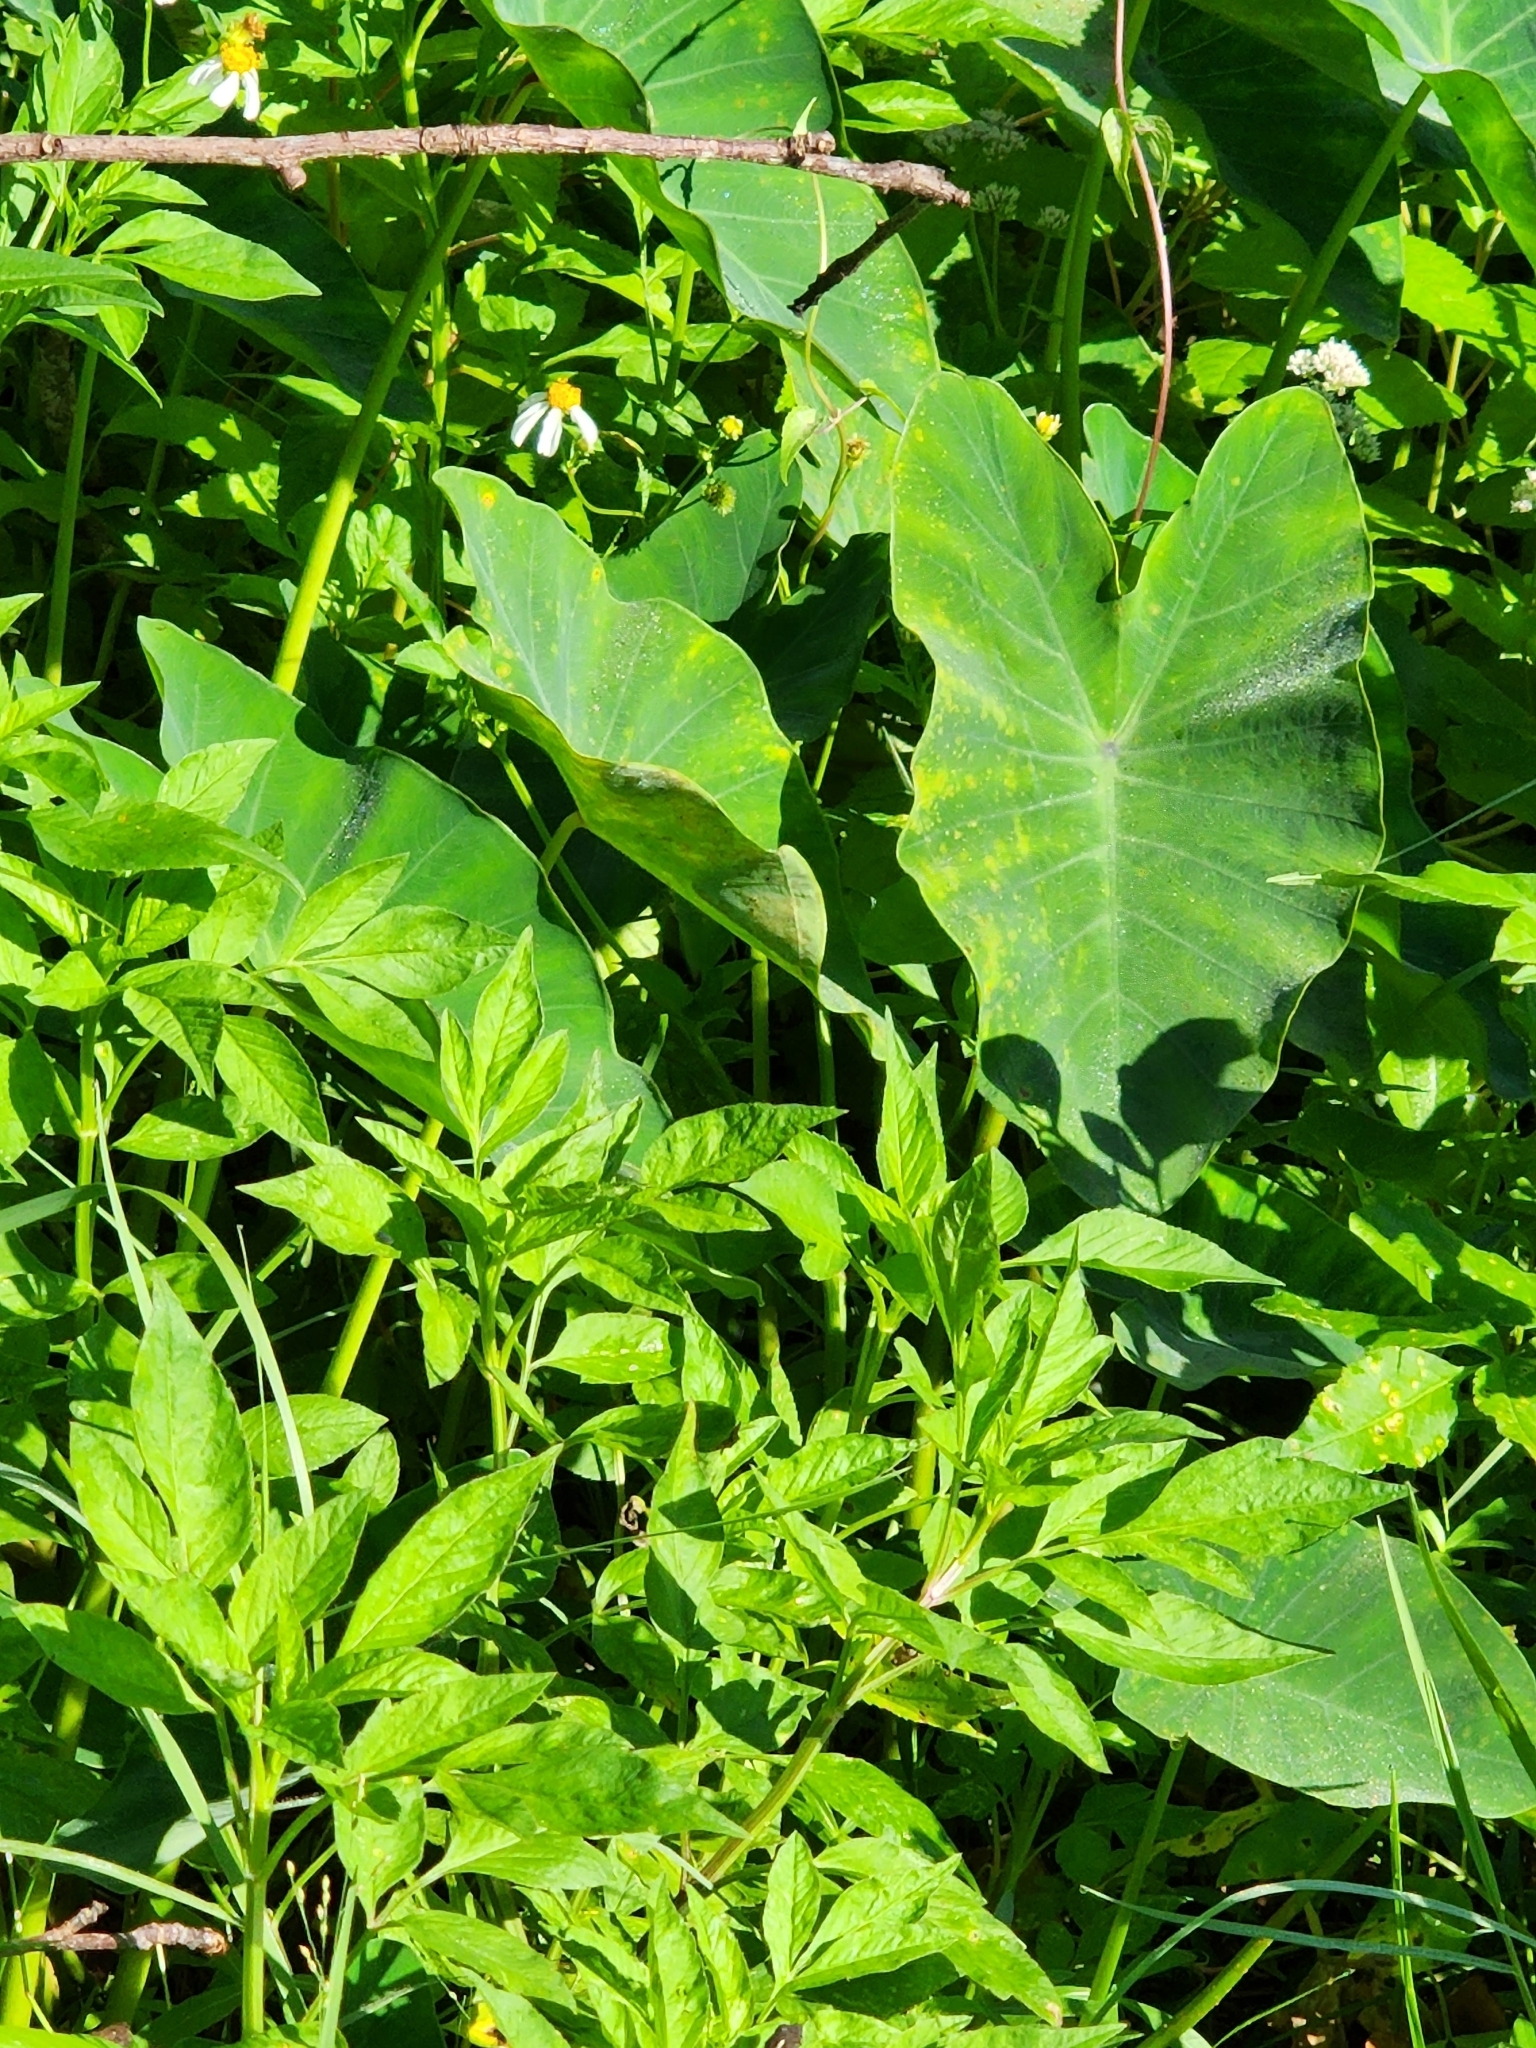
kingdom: Plantae
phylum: Tracheophyta
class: Liliopsida
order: Alismatales
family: Araceae
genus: Colocasia
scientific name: Colocasia esculenta
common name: Taro
